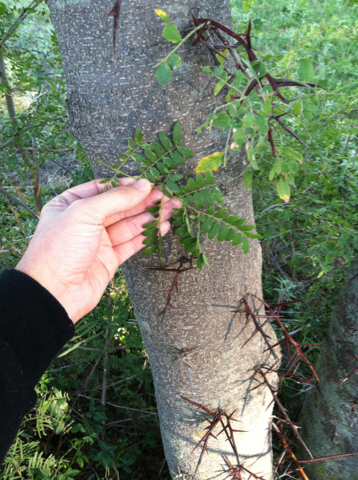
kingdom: Plantae
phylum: Tracheophyta
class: Magnoliopsida
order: Fabales
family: Fabaceae
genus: Gleditsia
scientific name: Gleditsia triacanthos
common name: Common honeylocust
